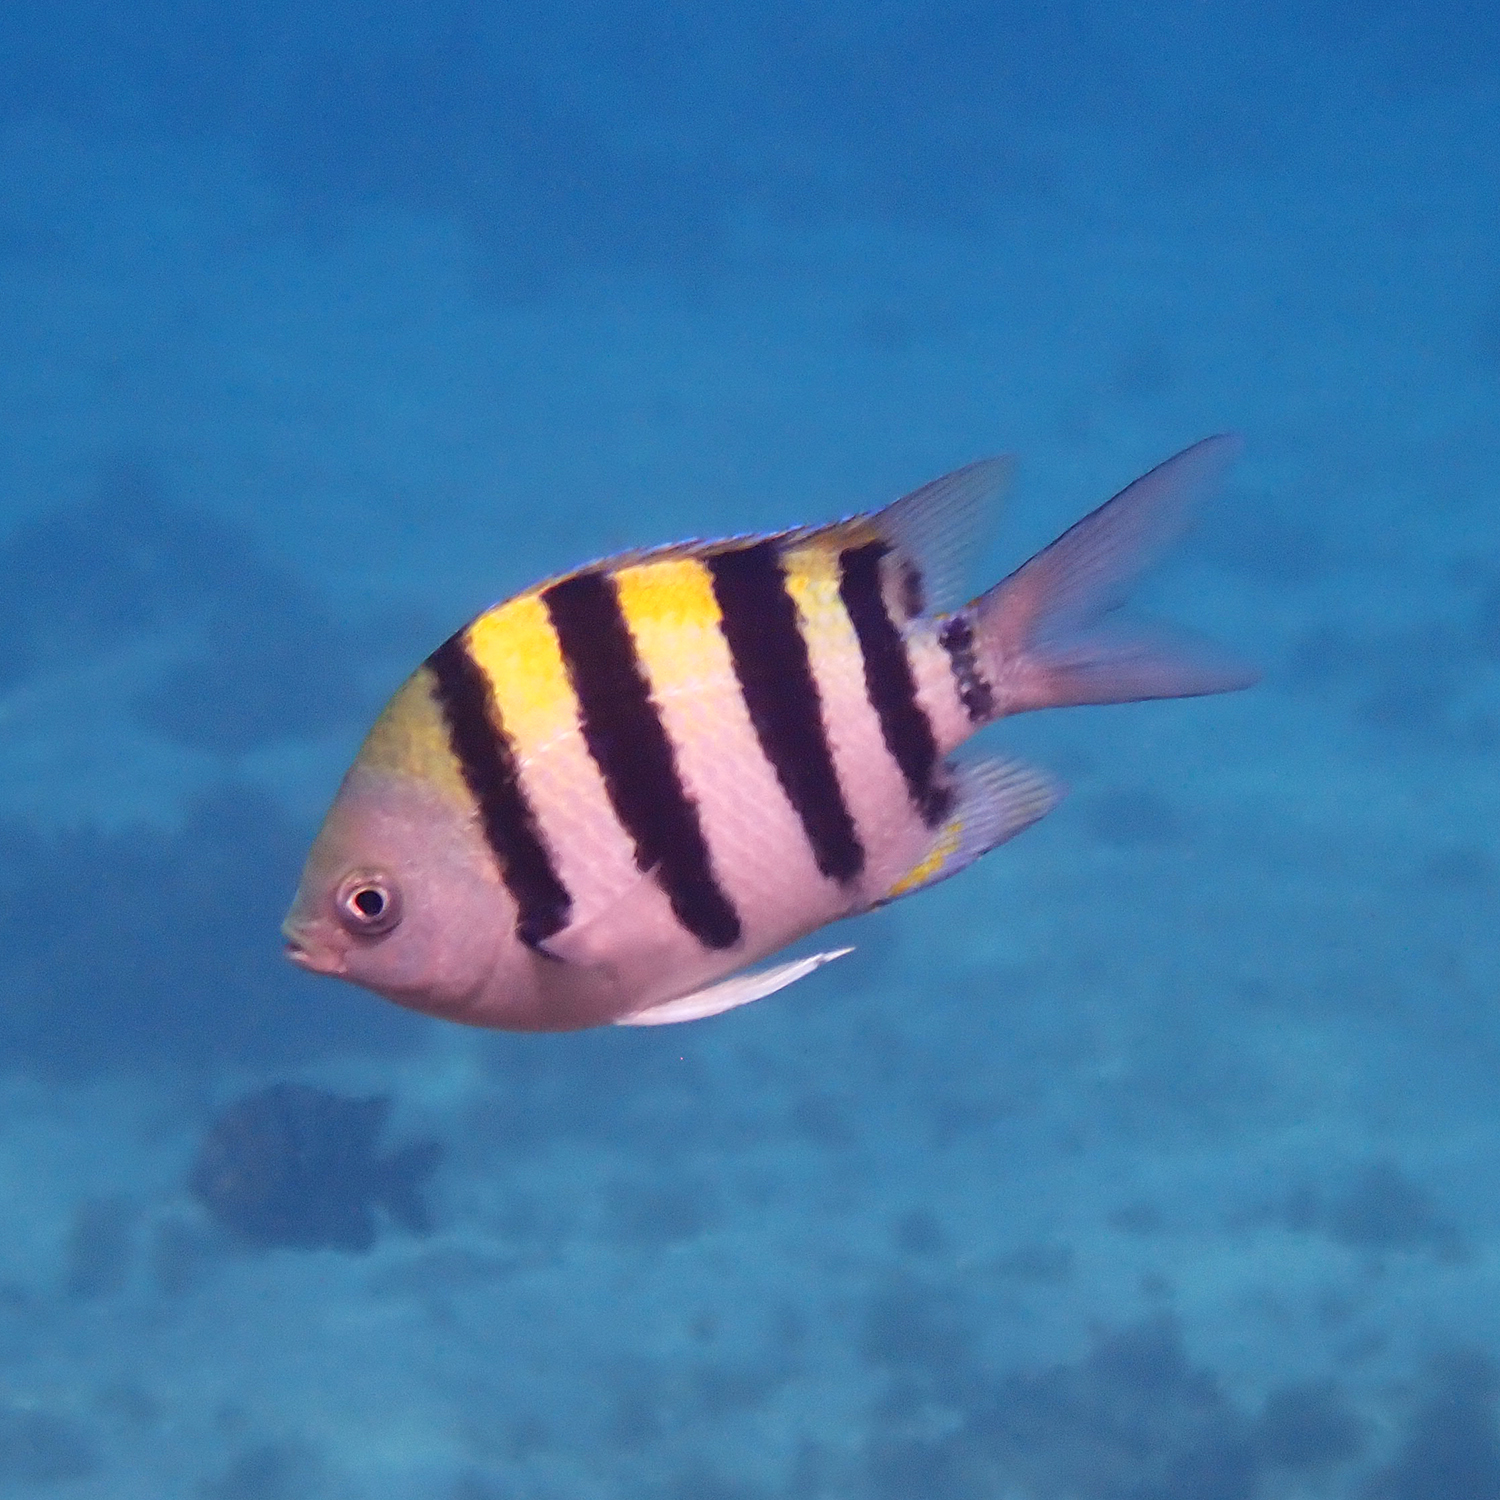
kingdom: Animalia
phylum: Chordata
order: Perciformes
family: Pomacentridae
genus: Abudefduf
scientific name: Abudefduf vaigiensis
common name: Indo-pacific sergeant
